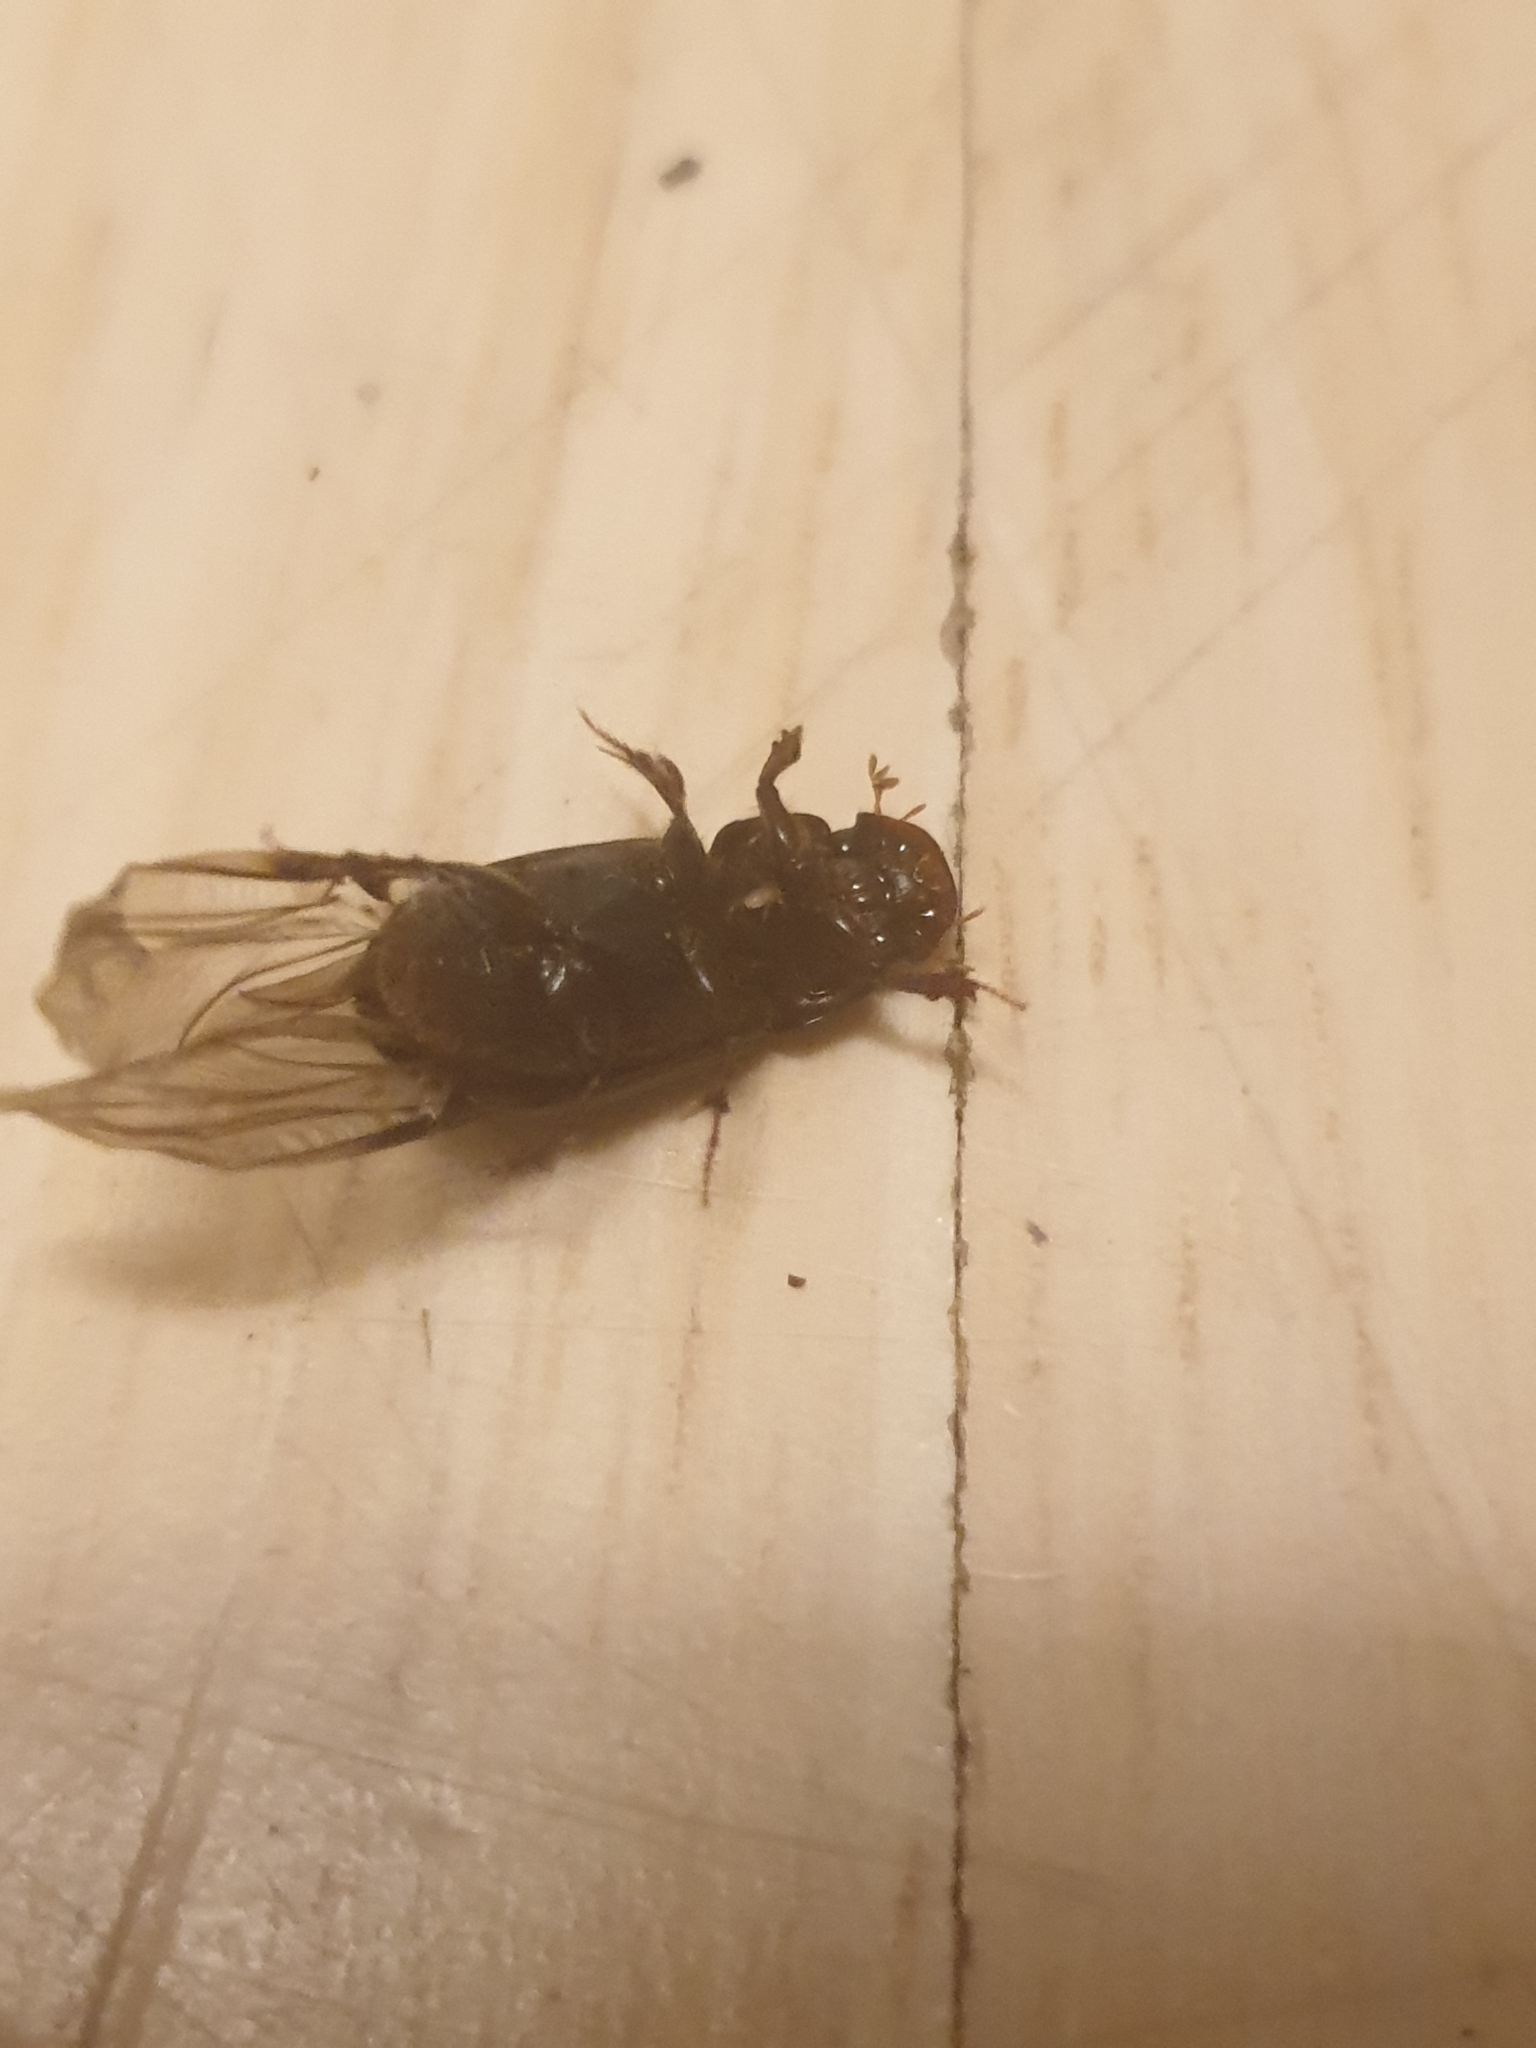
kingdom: Animalia
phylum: Arthropoda
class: Insecta
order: Coleoptera
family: Scarabaeidae
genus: Acrossus
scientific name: Acrossus rufipes
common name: Night-flying dung beetle
